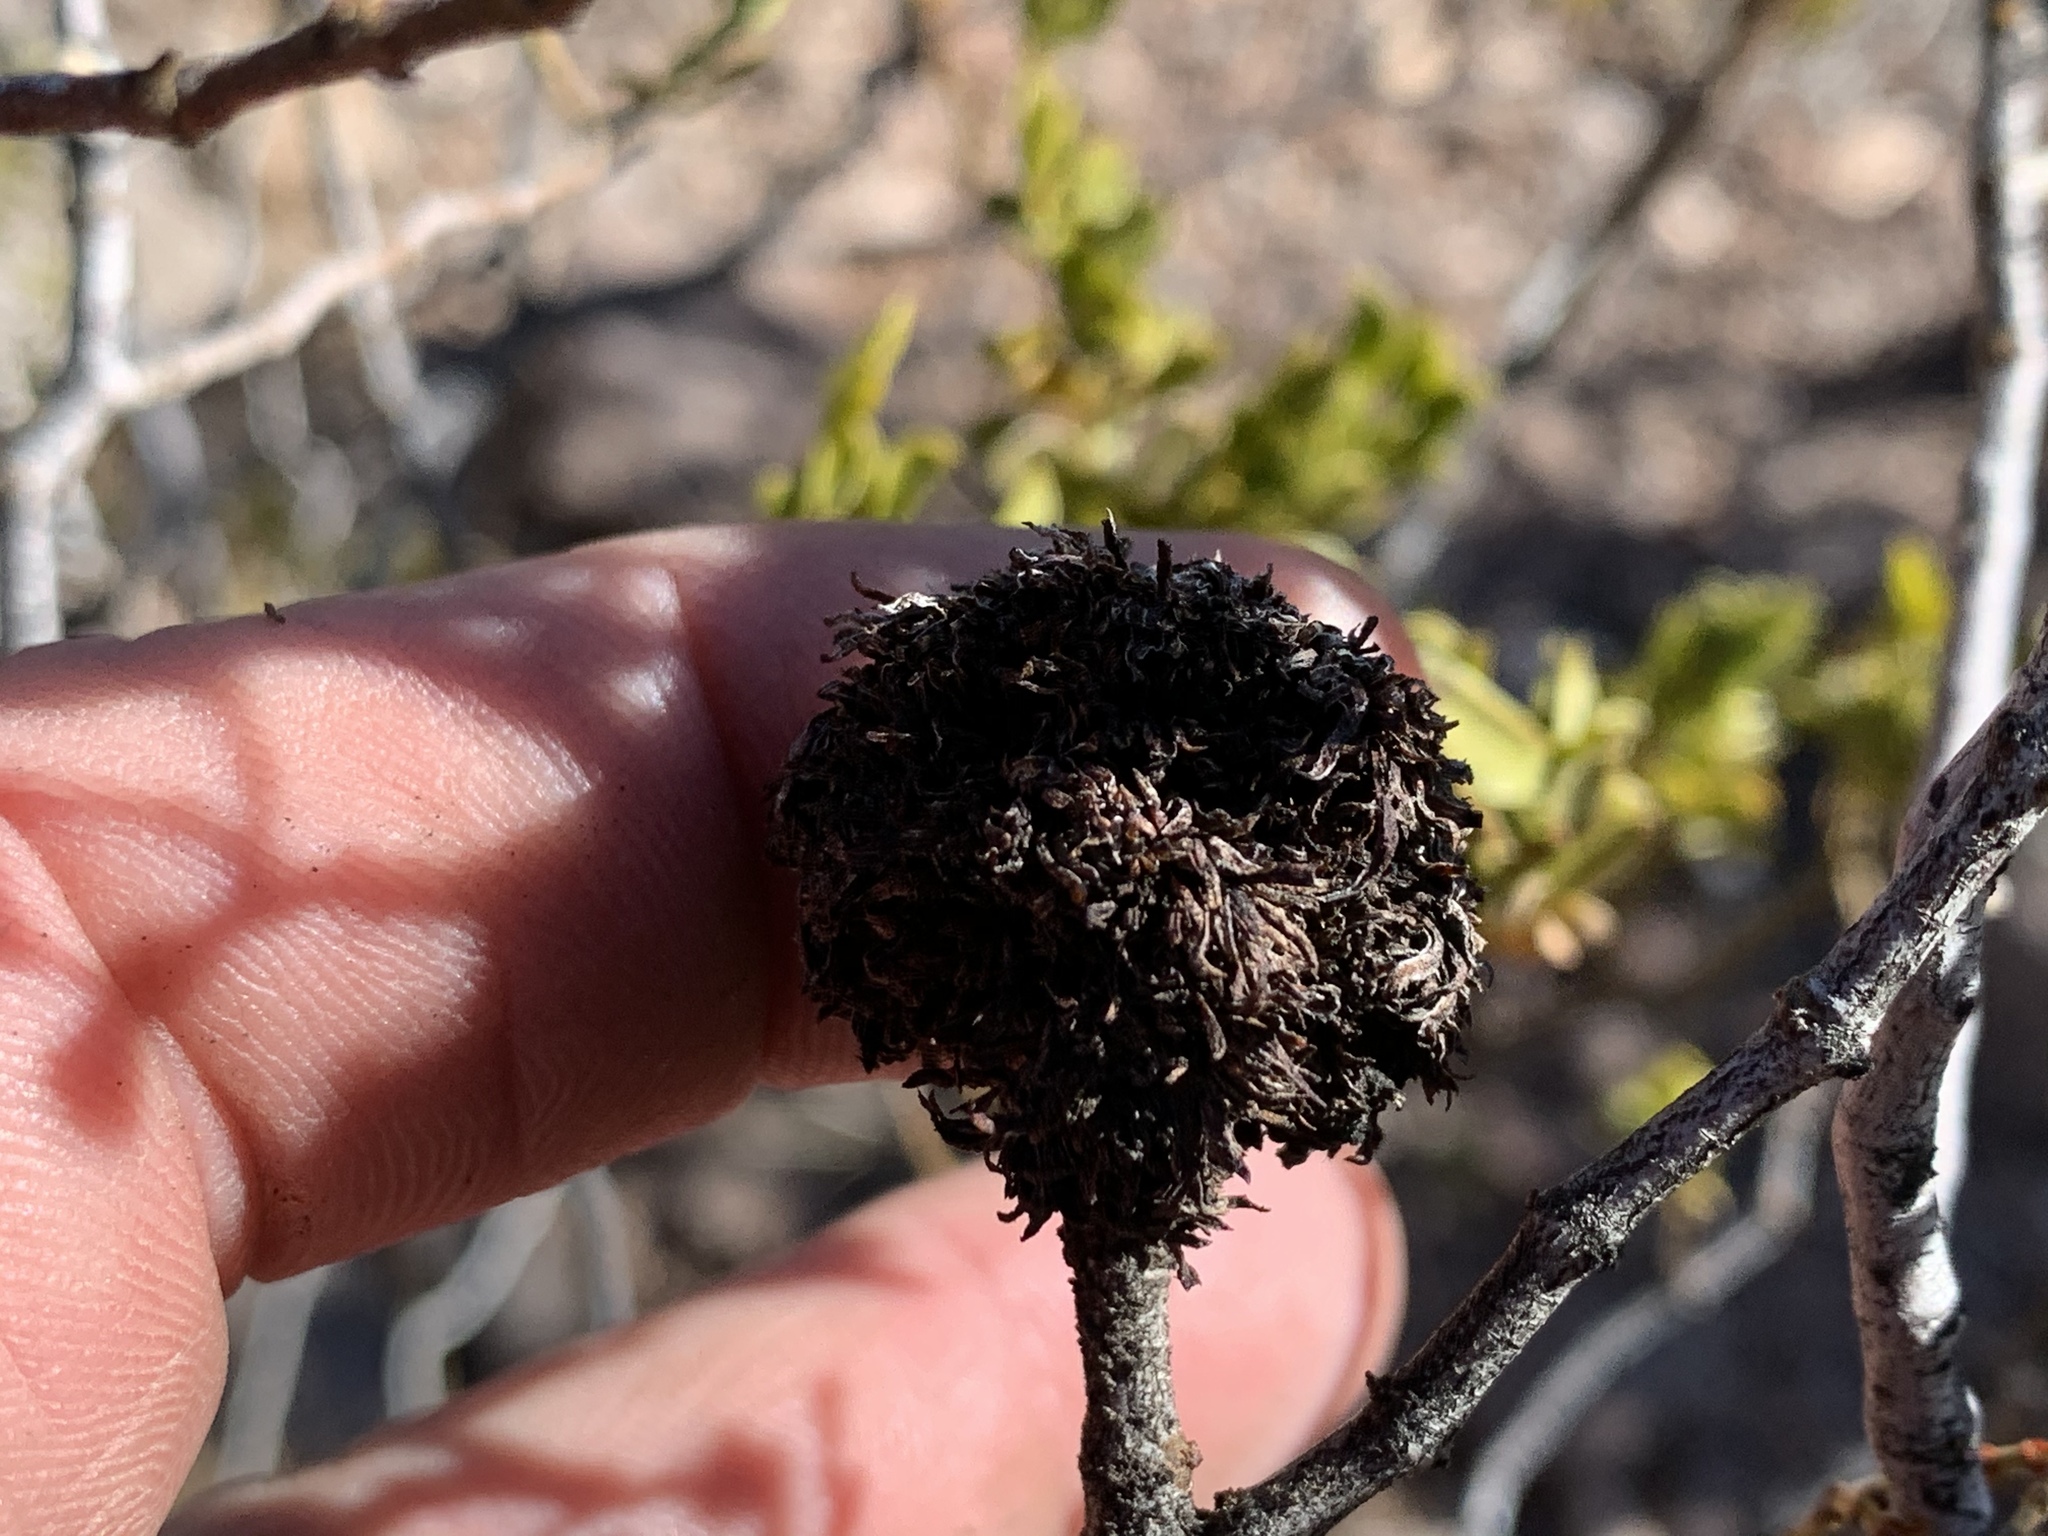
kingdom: Animalia
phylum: Arthropoda
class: Insecta
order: Diptera
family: Cecidomyiidae
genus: Asphondylia
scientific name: Asphondylia auripila
